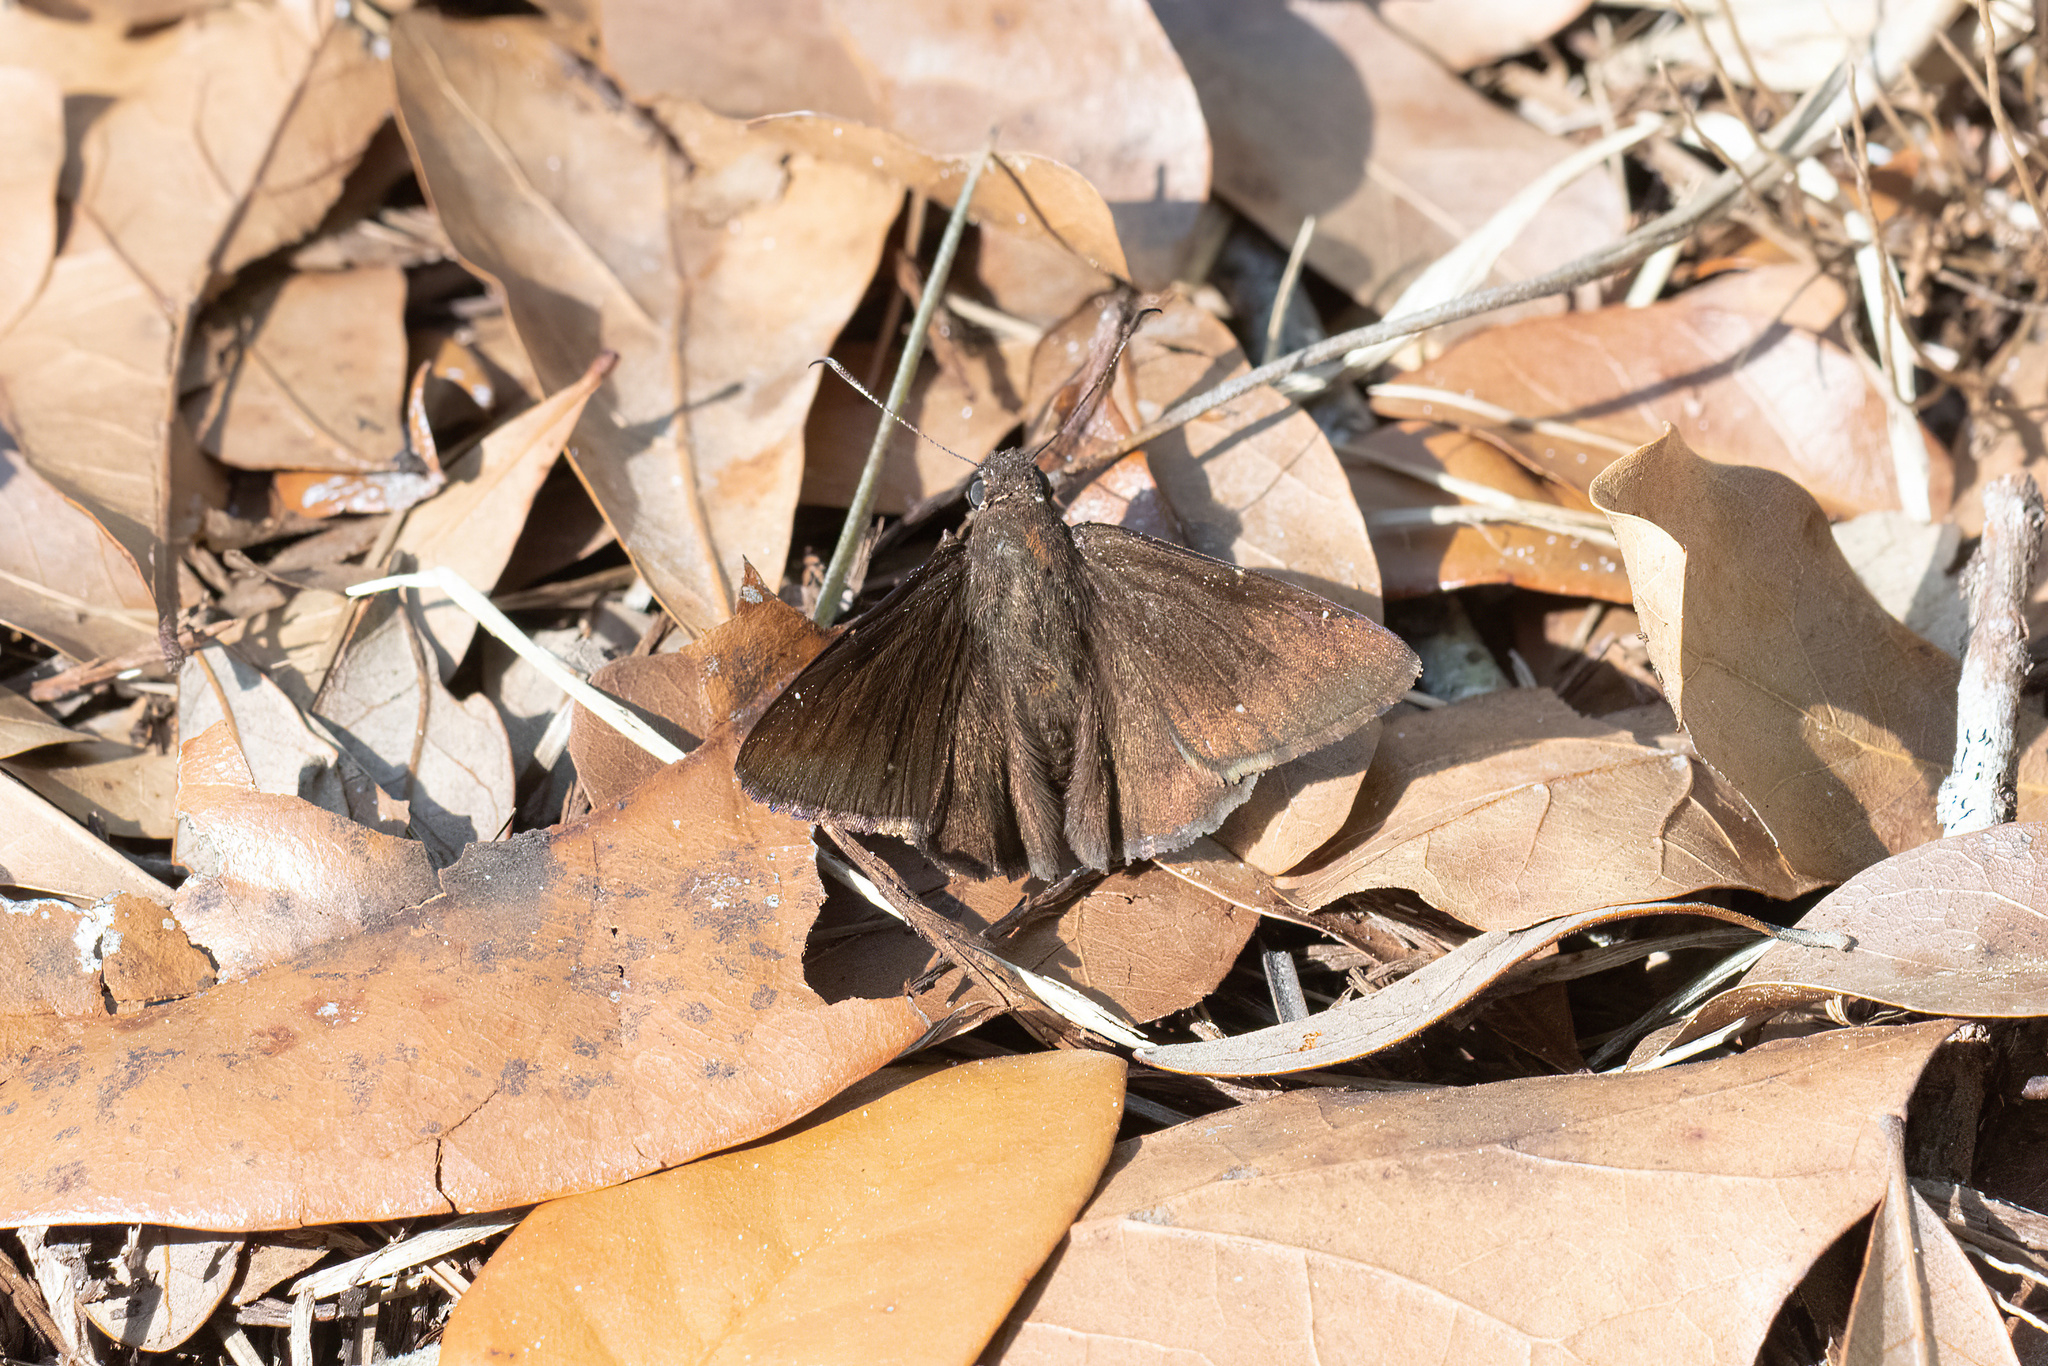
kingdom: Animalia
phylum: Arthropoda
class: Insecta
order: Lepidoptera
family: Hesperiidae
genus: Thorybes
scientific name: Thorybes pylades
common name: Northern cloudywing
